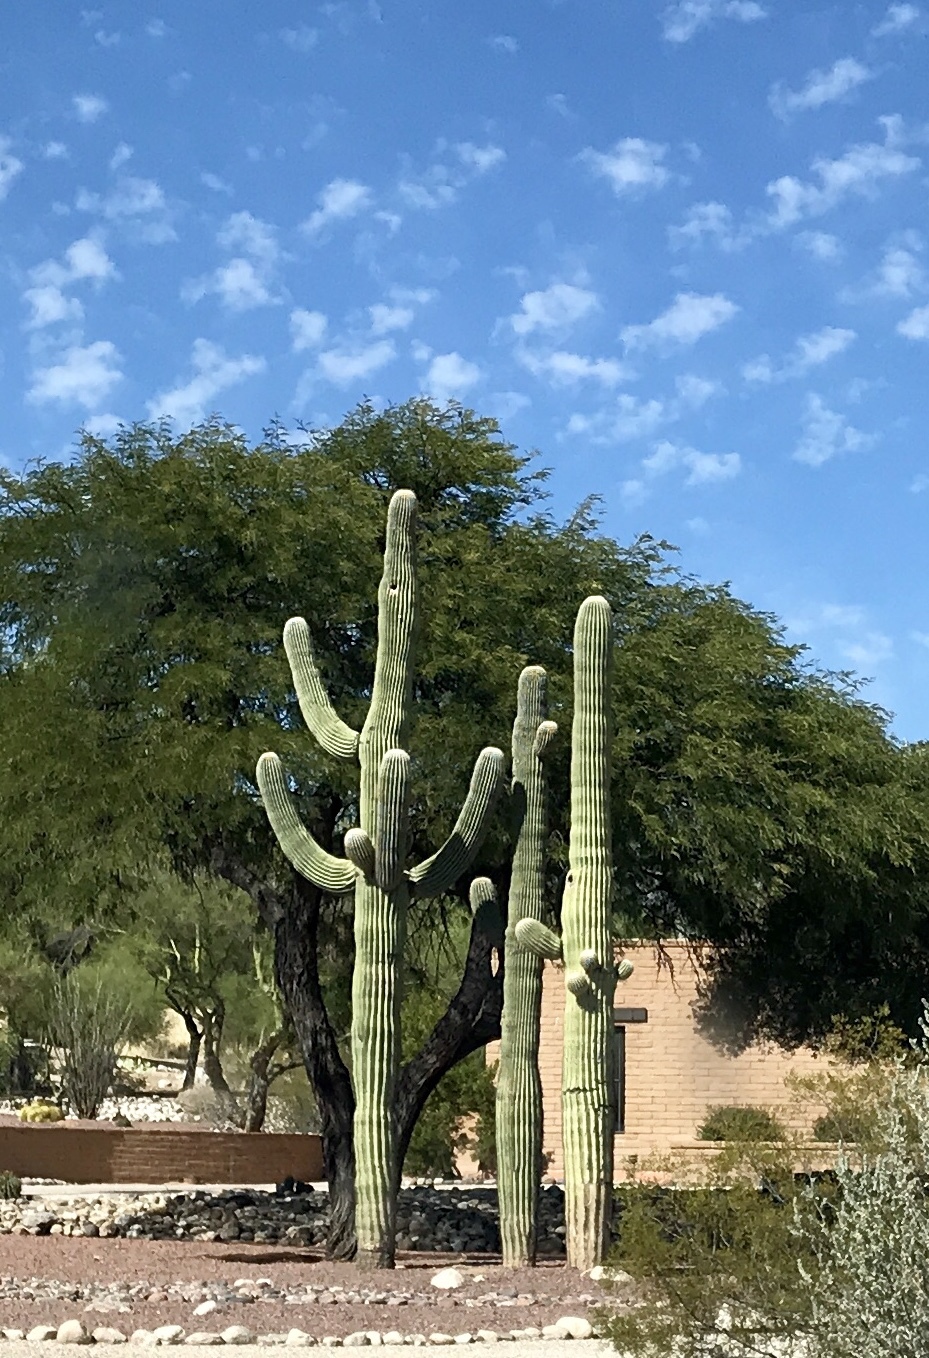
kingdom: Plantae
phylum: Tracheophyta
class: Magnoliopsida
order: Caryophyllales
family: Cactaceae
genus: Carnegiea
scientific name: Carnegiea gigantea
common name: Saguaro
